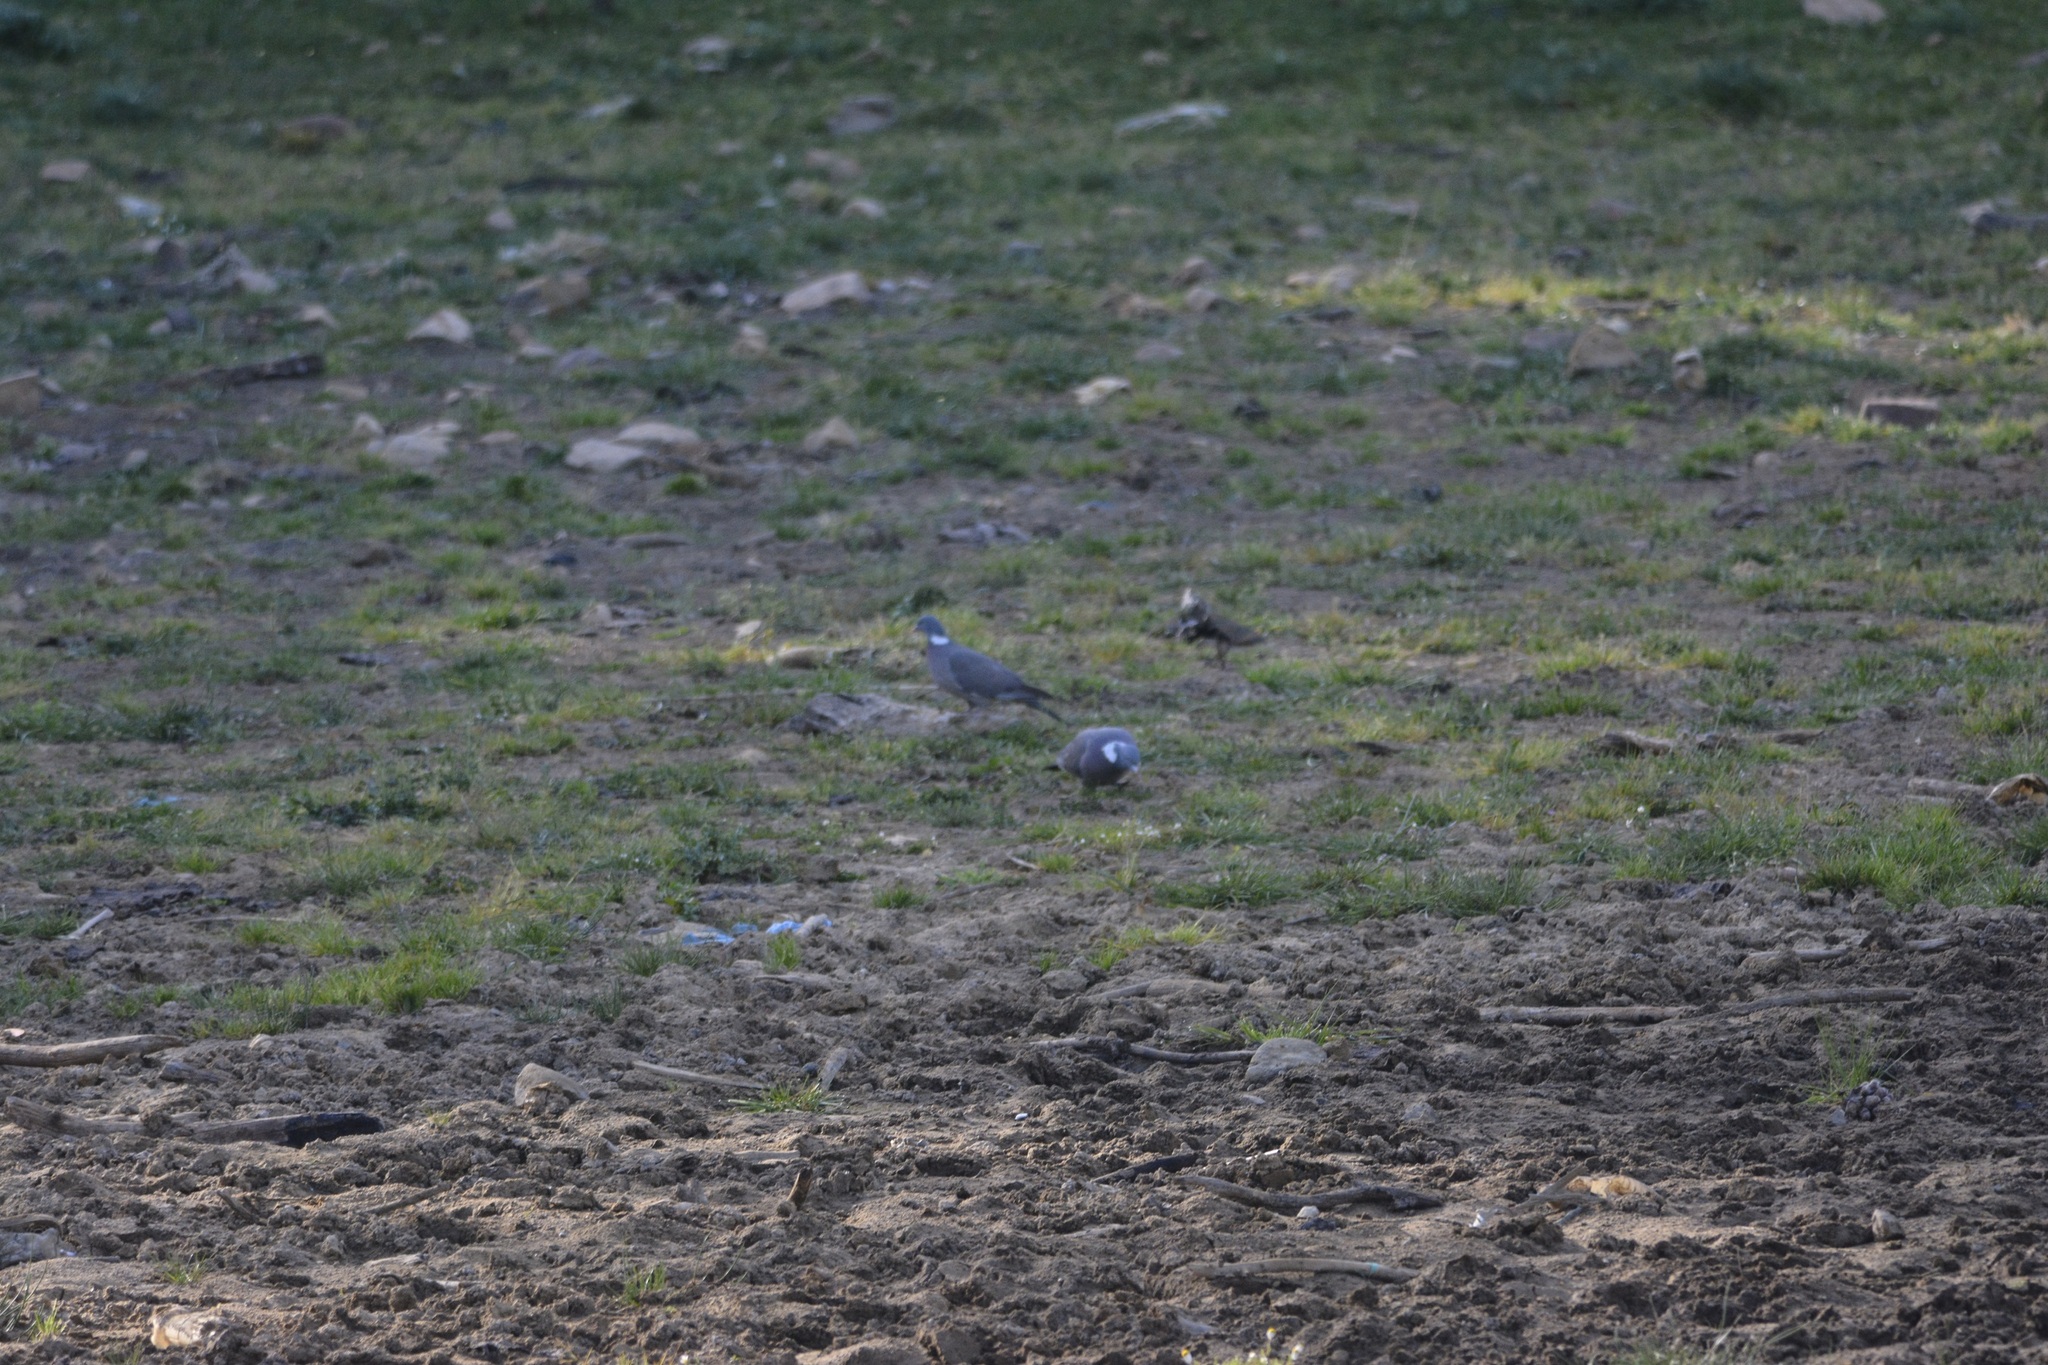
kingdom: Animalia
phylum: Chordata
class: Aves
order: Columbiformes
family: Columbidae
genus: Columba
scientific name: Columba palumbus
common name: Common wood pigeon
